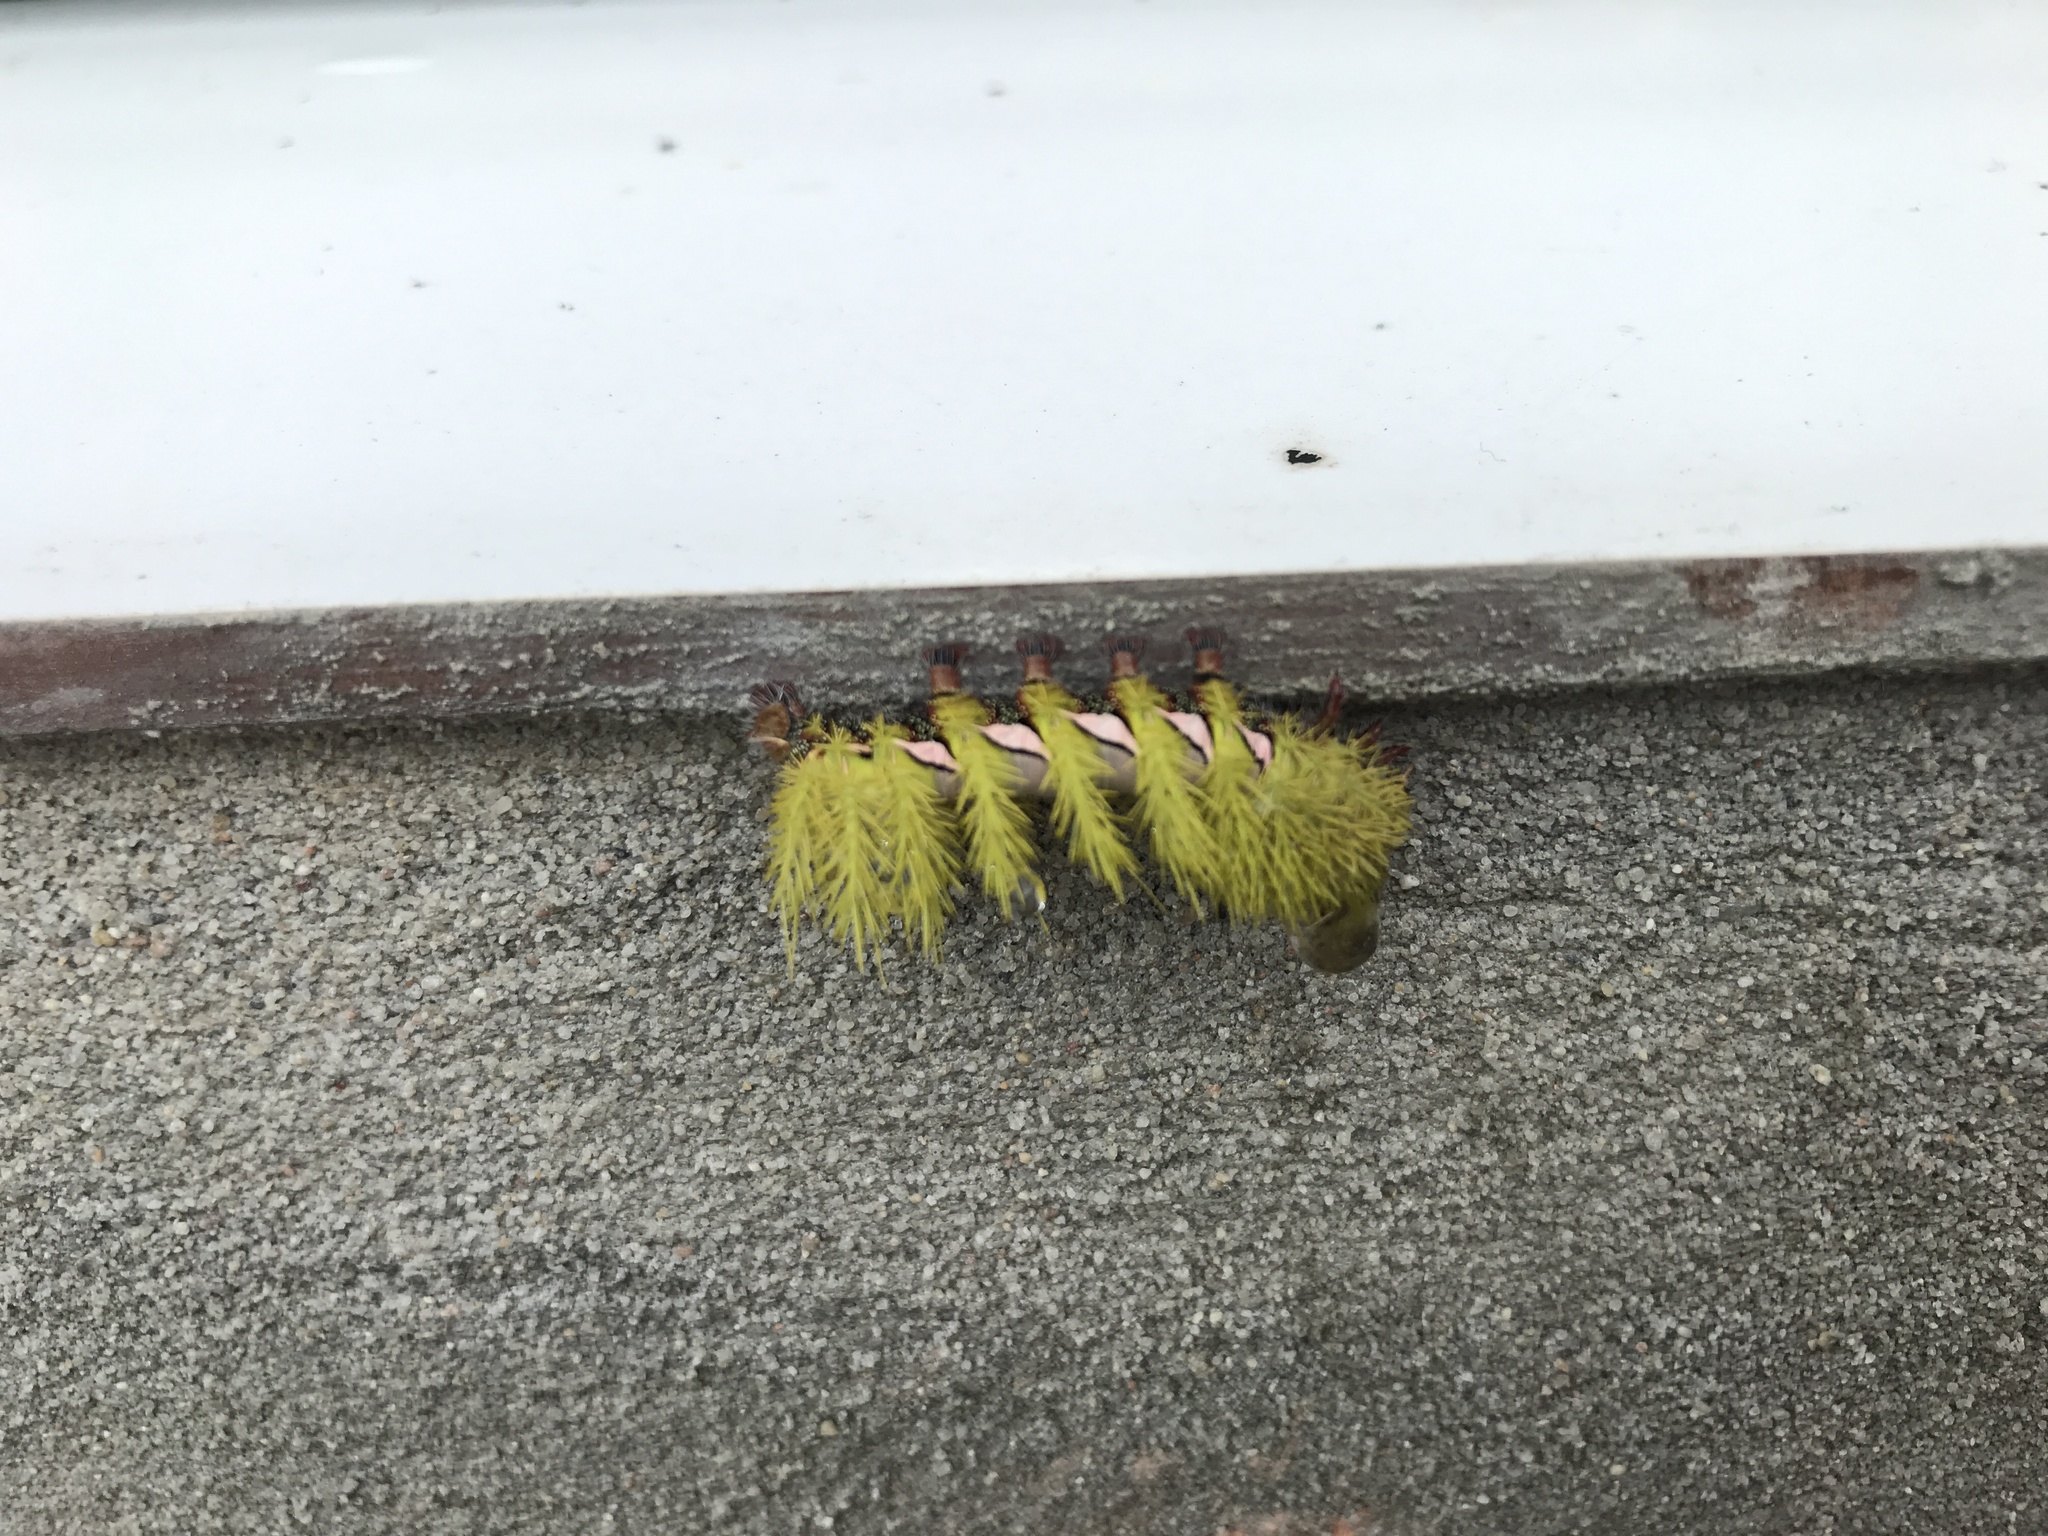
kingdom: Animalia
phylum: Arthropoda
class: Insecta
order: Lepidoptera
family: Saturniidae
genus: Automeris
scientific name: Automeris naranja
